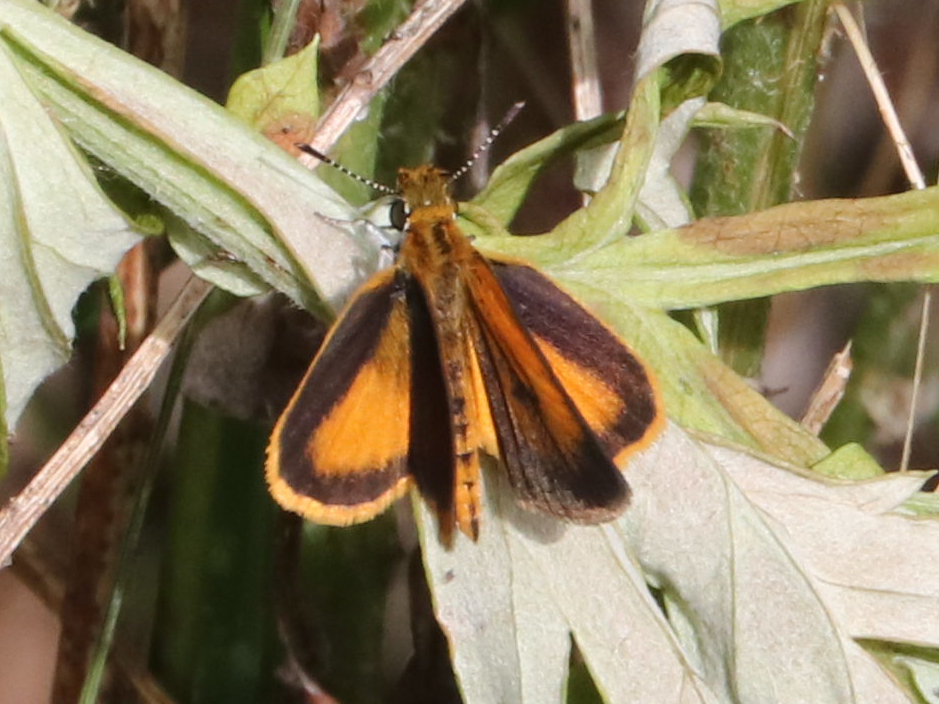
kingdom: Animalia
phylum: Arthropoda
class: Insecta
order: Lepidoptera
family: Hesperiidae
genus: Ancyloxypha
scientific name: Ancyloxypha numitor
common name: Least skipper
